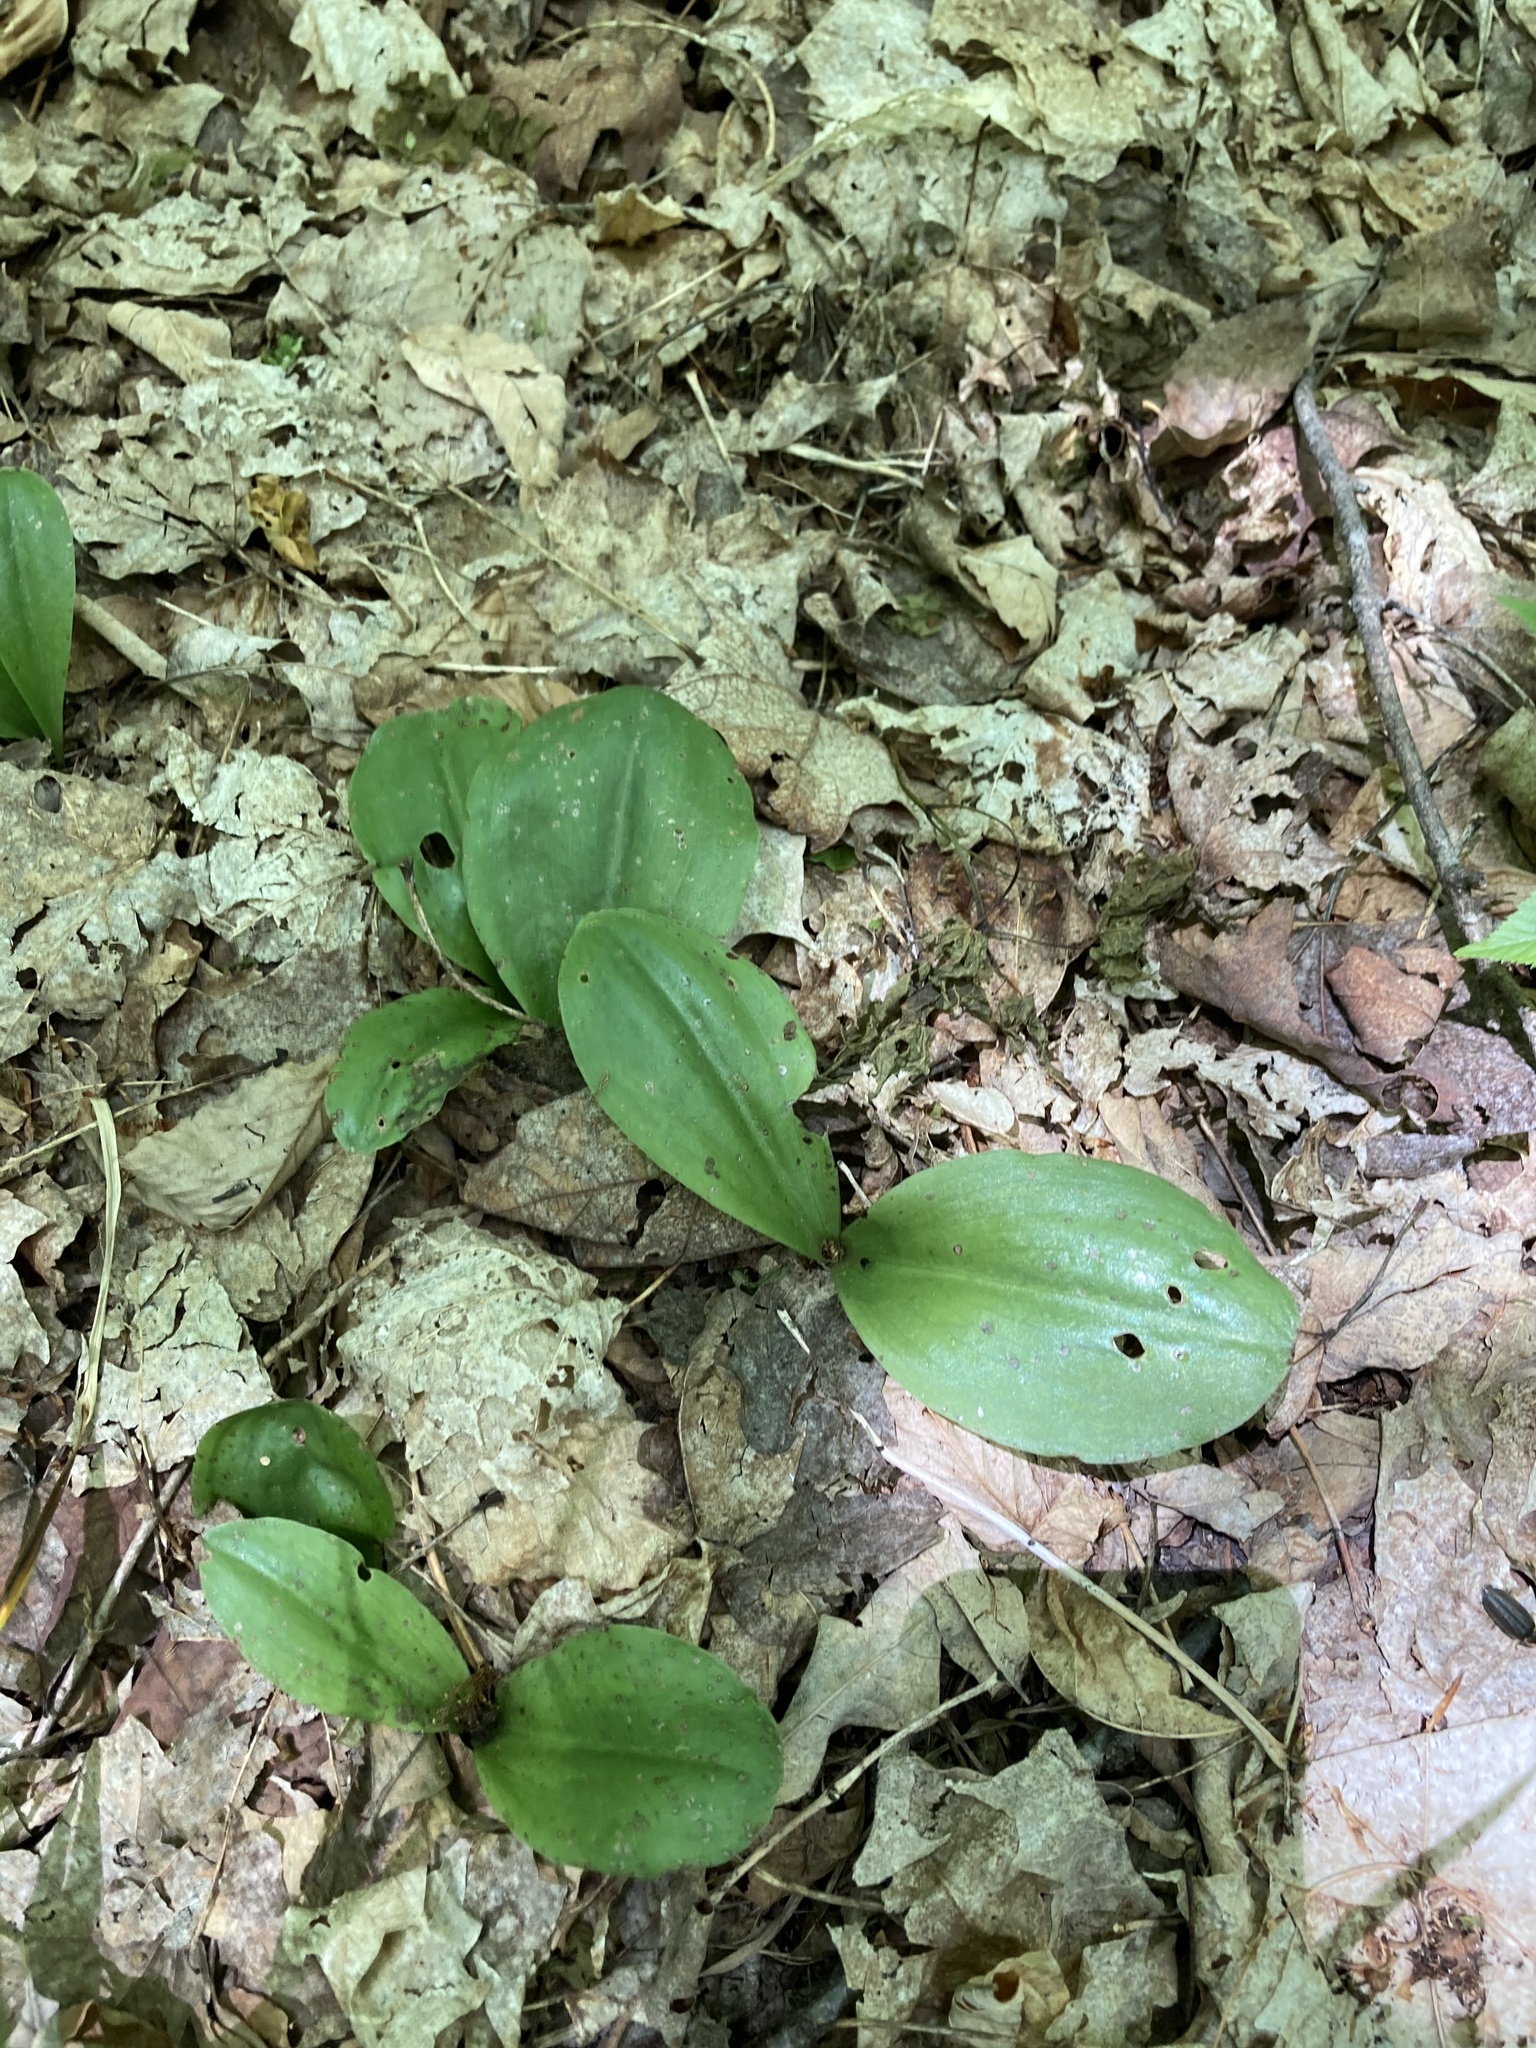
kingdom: Plantae
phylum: Tracheophyta
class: Liliopsida
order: Asparagales
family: Orchidaceae
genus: Galearis
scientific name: Galearis spectabilis
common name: Purple-hooded orchis
